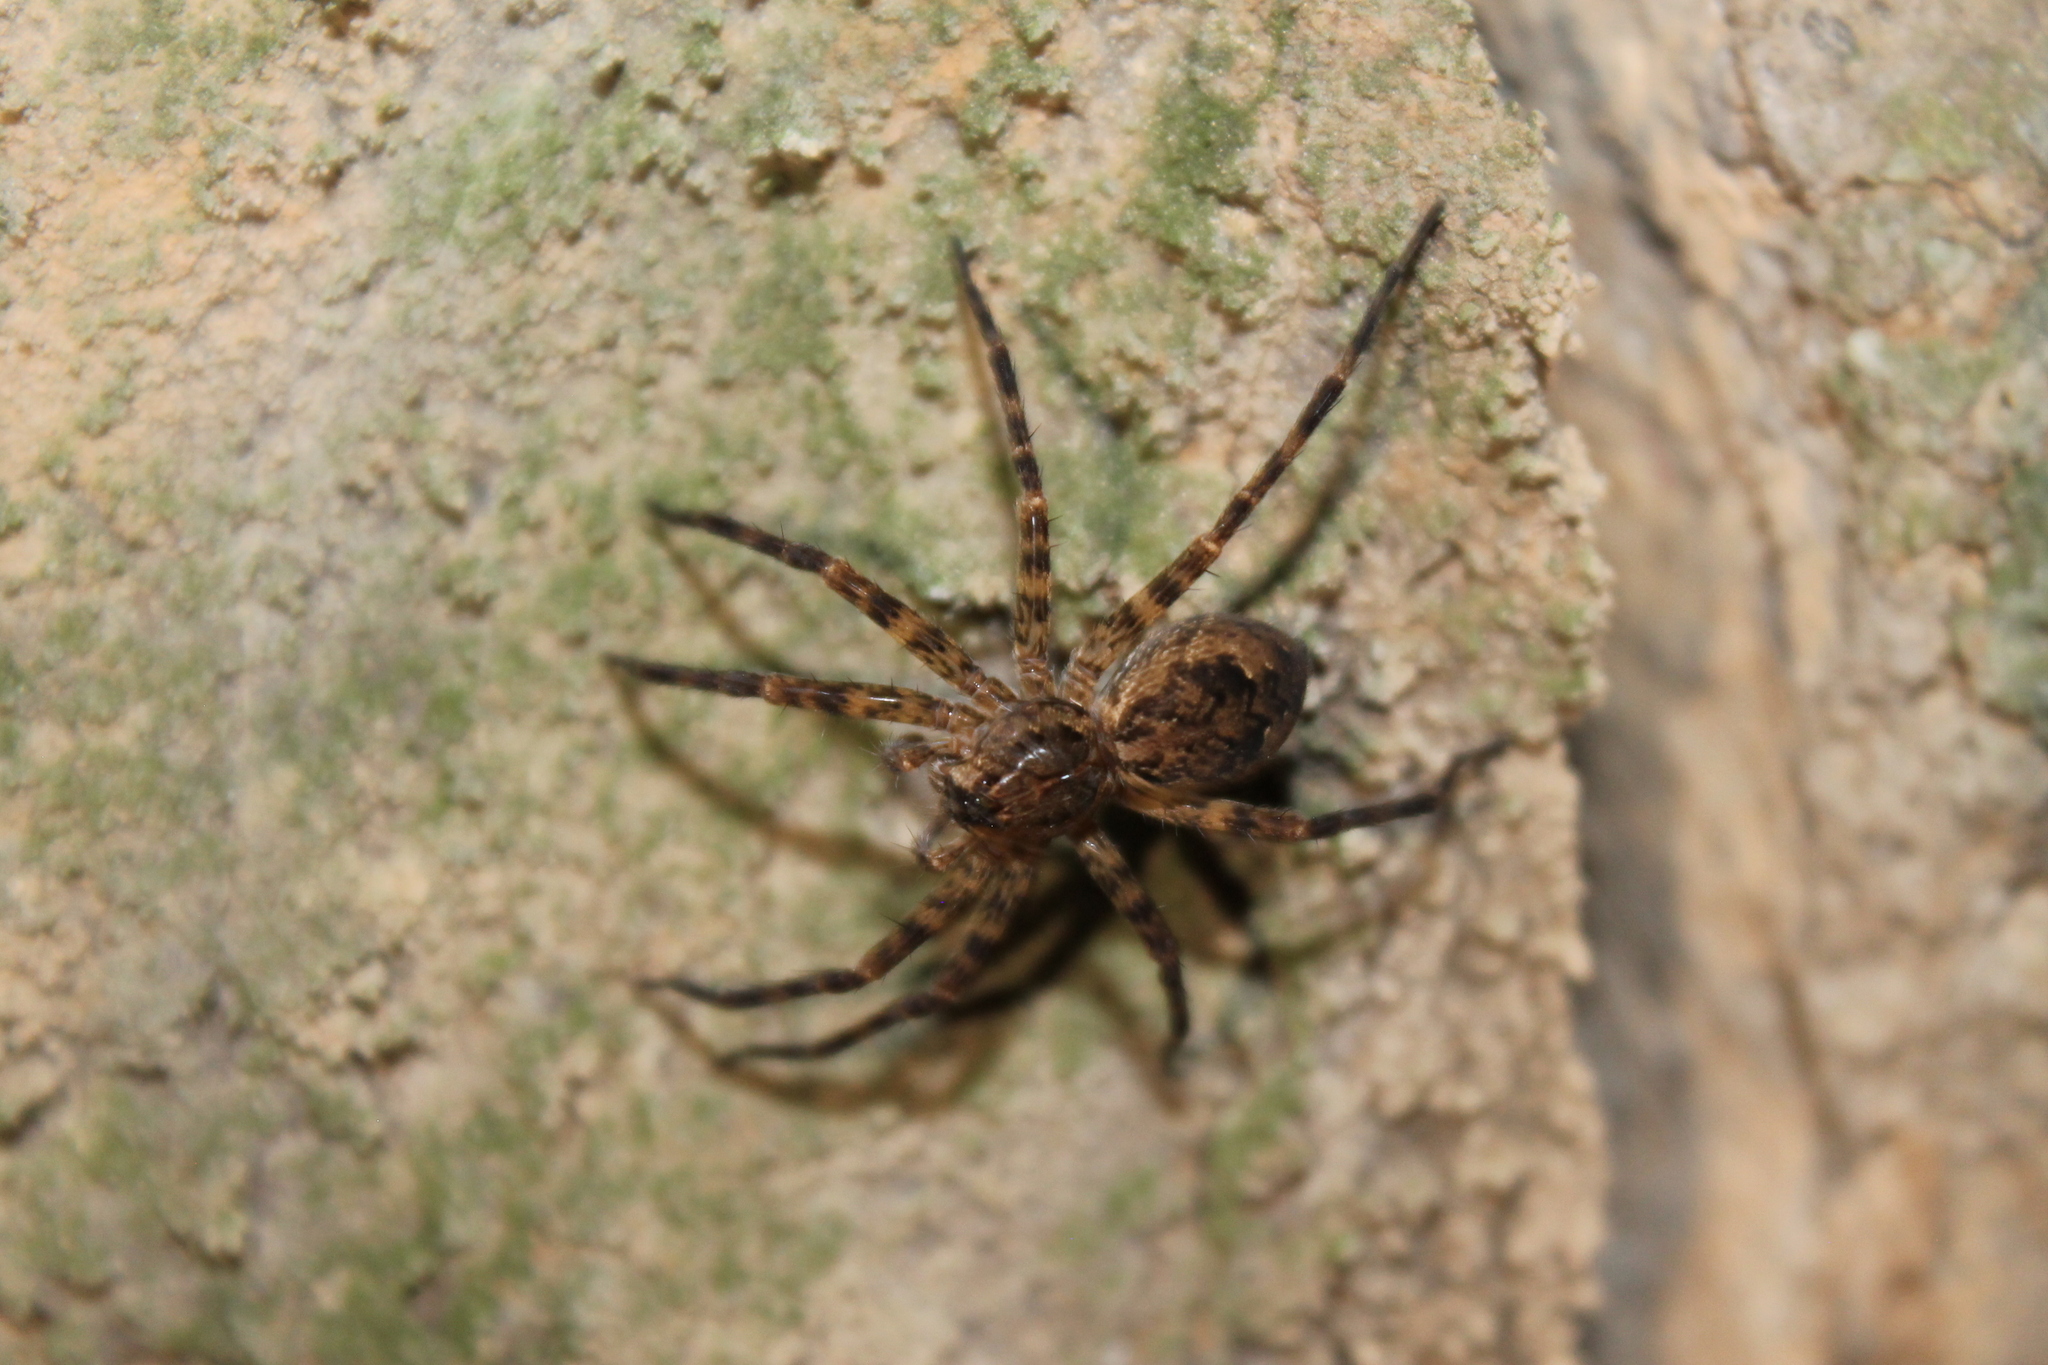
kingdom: Animalia
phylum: Arthropoda
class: Arachnida
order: Araneae
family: Pisauridae
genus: Dolomedes
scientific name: Dolomedes tenebrosus
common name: Dark fishing spider
